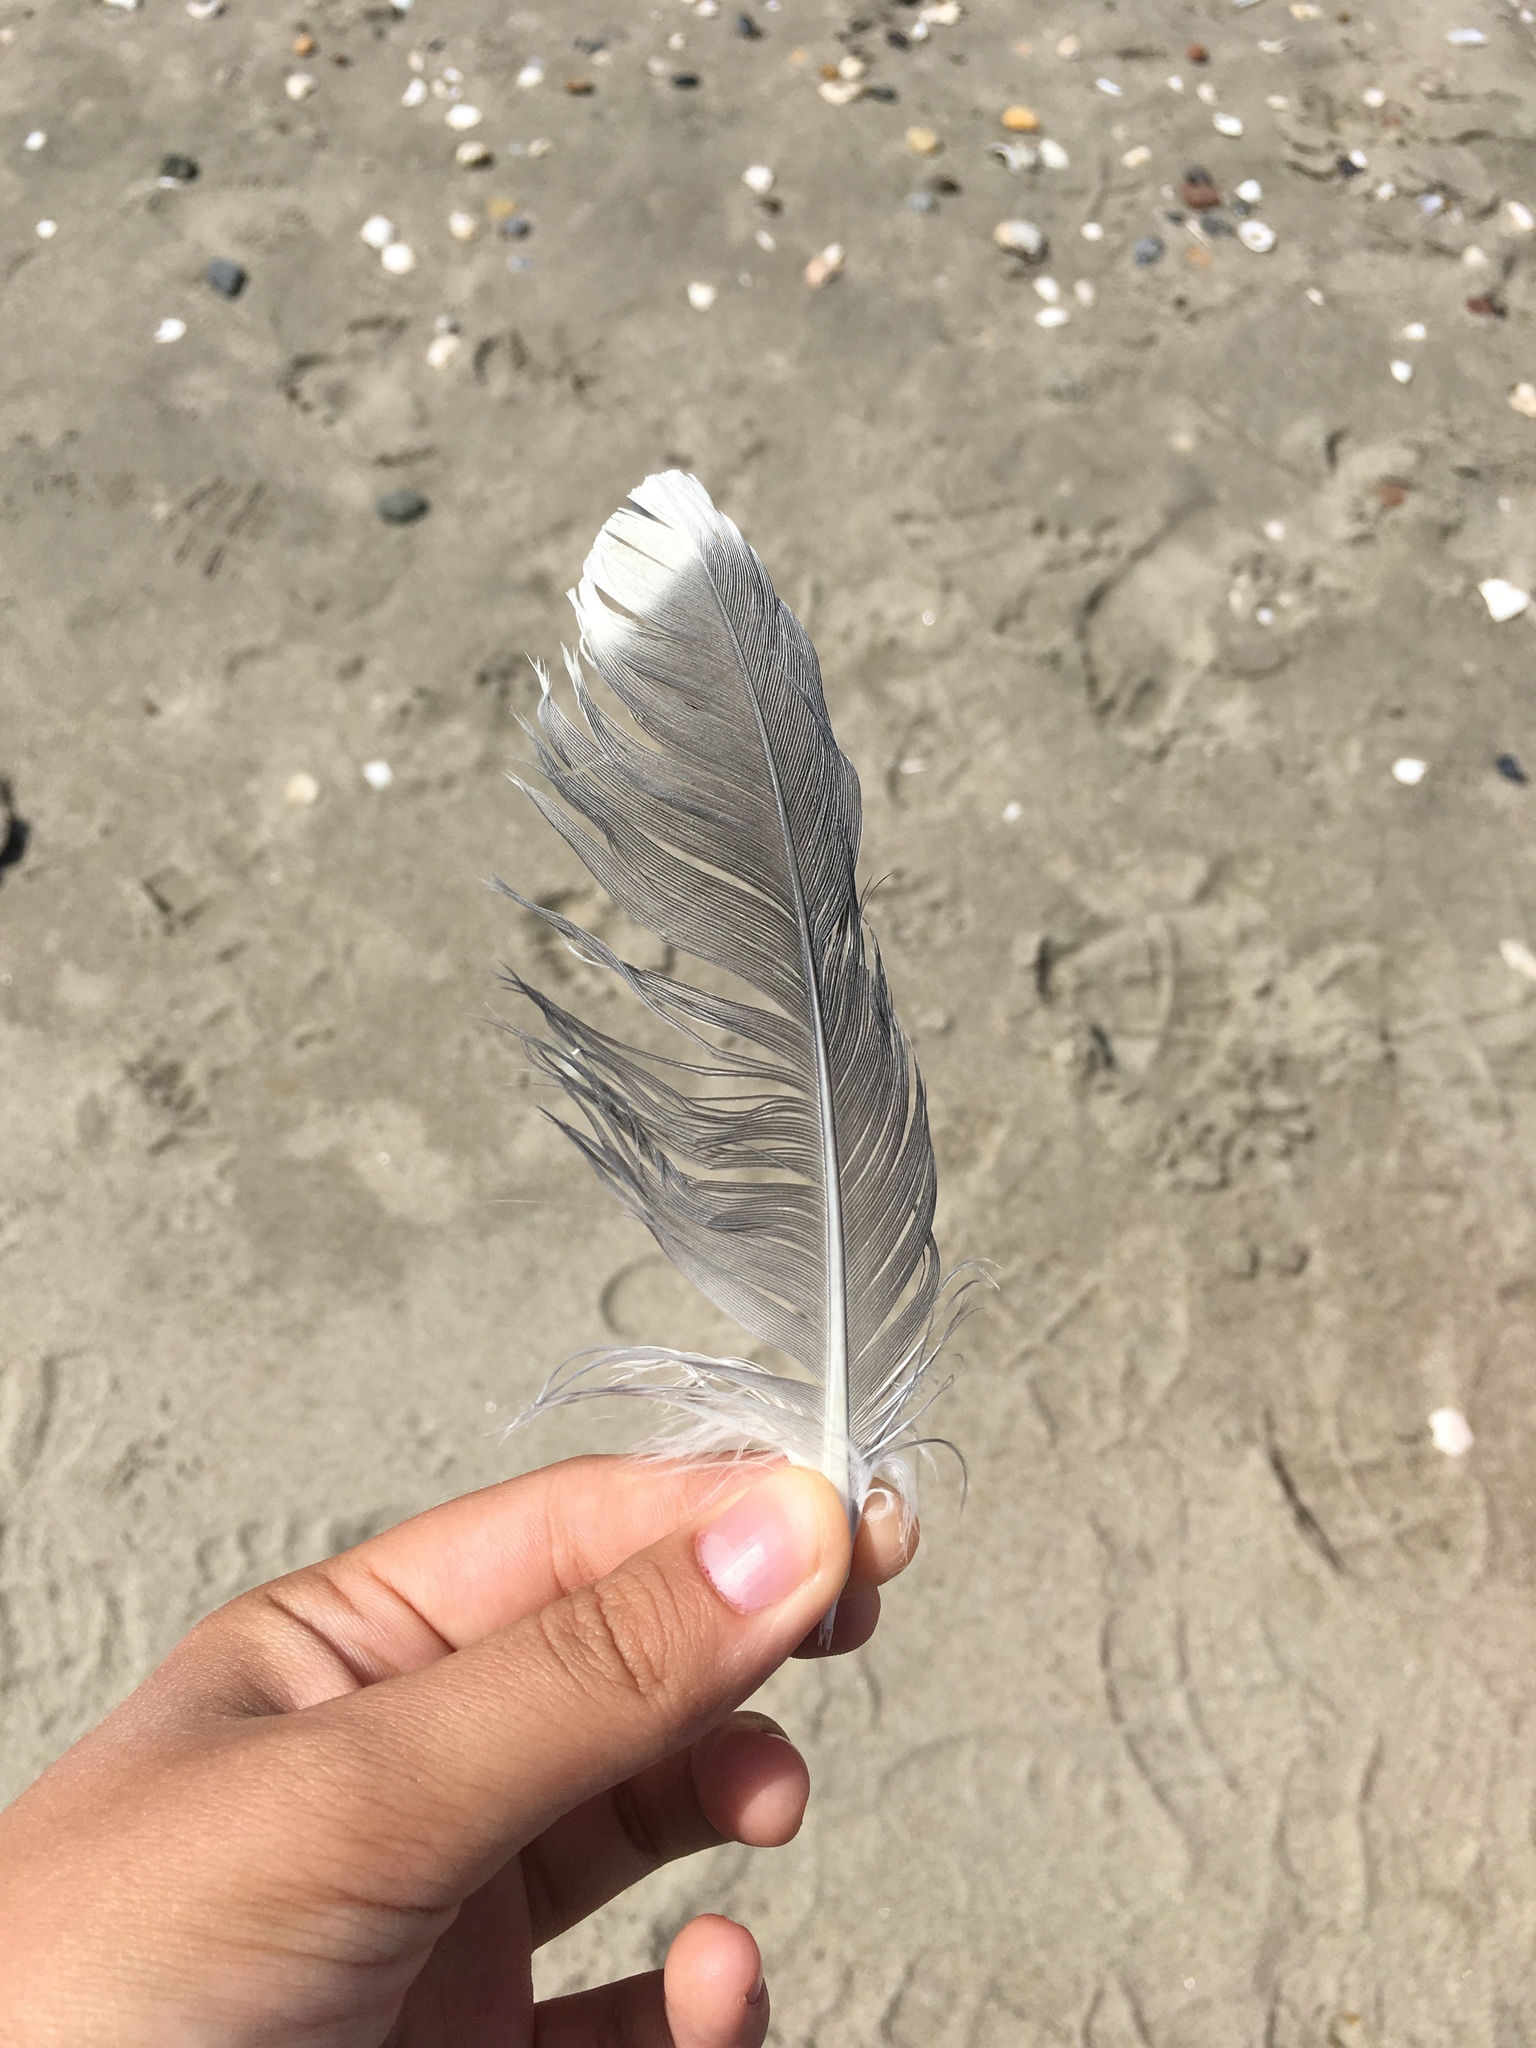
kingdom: Animalia
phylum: Chordata
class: Aves
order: Charadriiformes
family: Laridae
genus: Larus
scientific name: Larus fuscus
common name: Lesser black-backed gull
